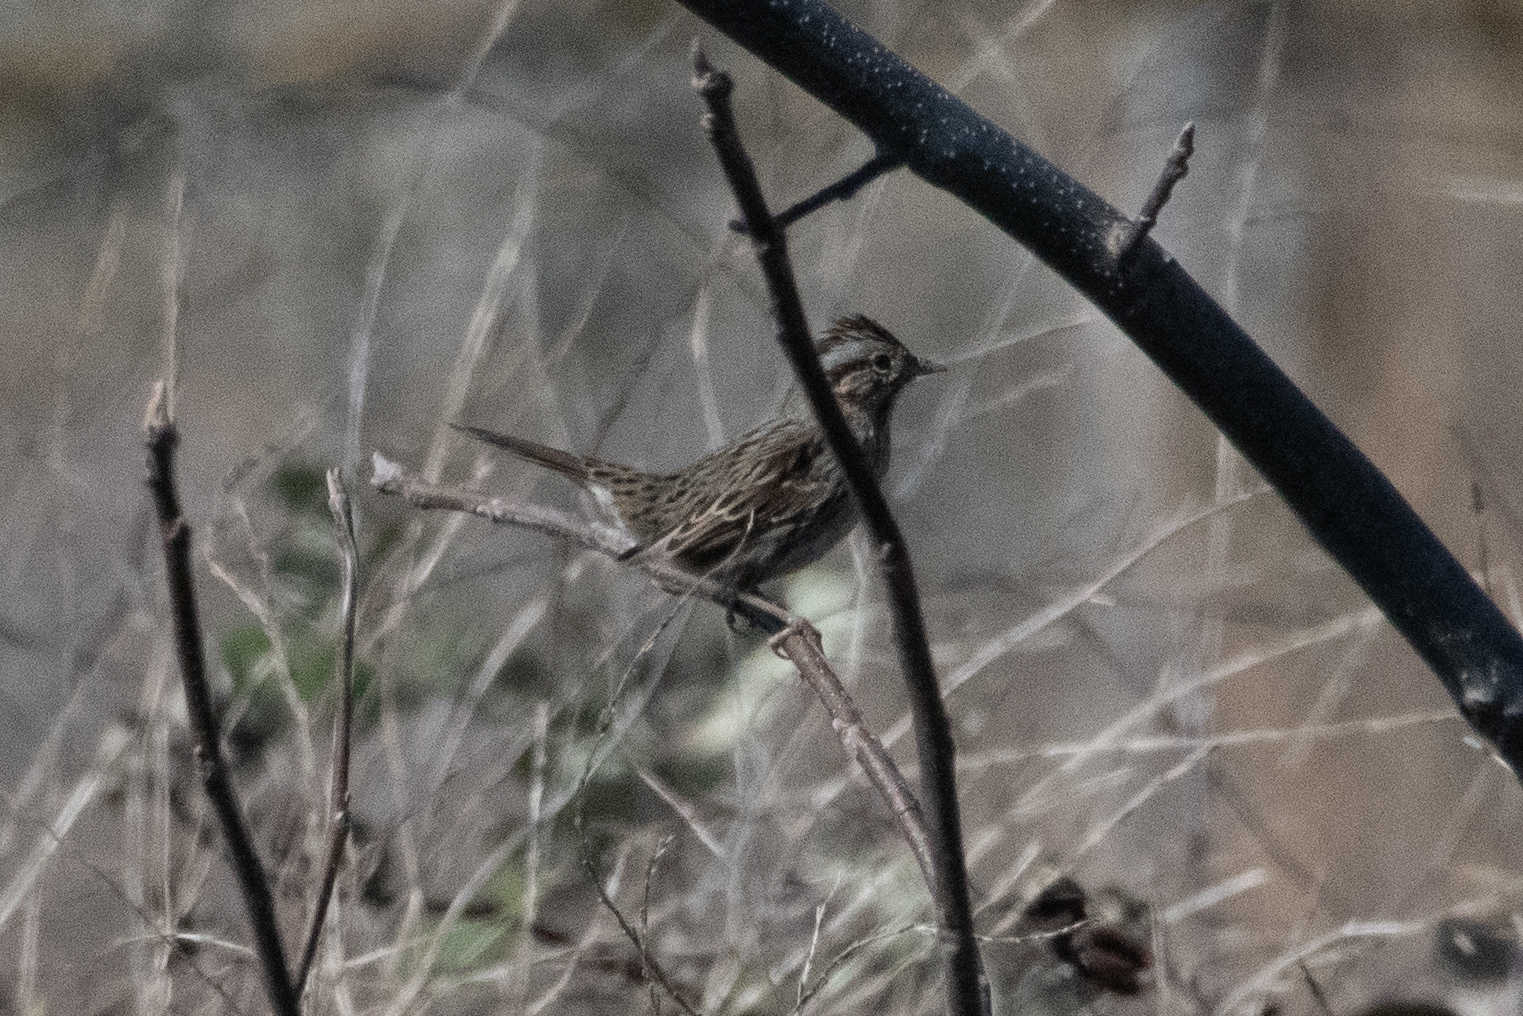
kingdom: Animalia
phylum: Chordata
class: Aves
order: Passeriformes
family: Passerellidae
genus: Melospiza
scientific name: Melospiza lincolnii
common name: Lincoln's sparrow
